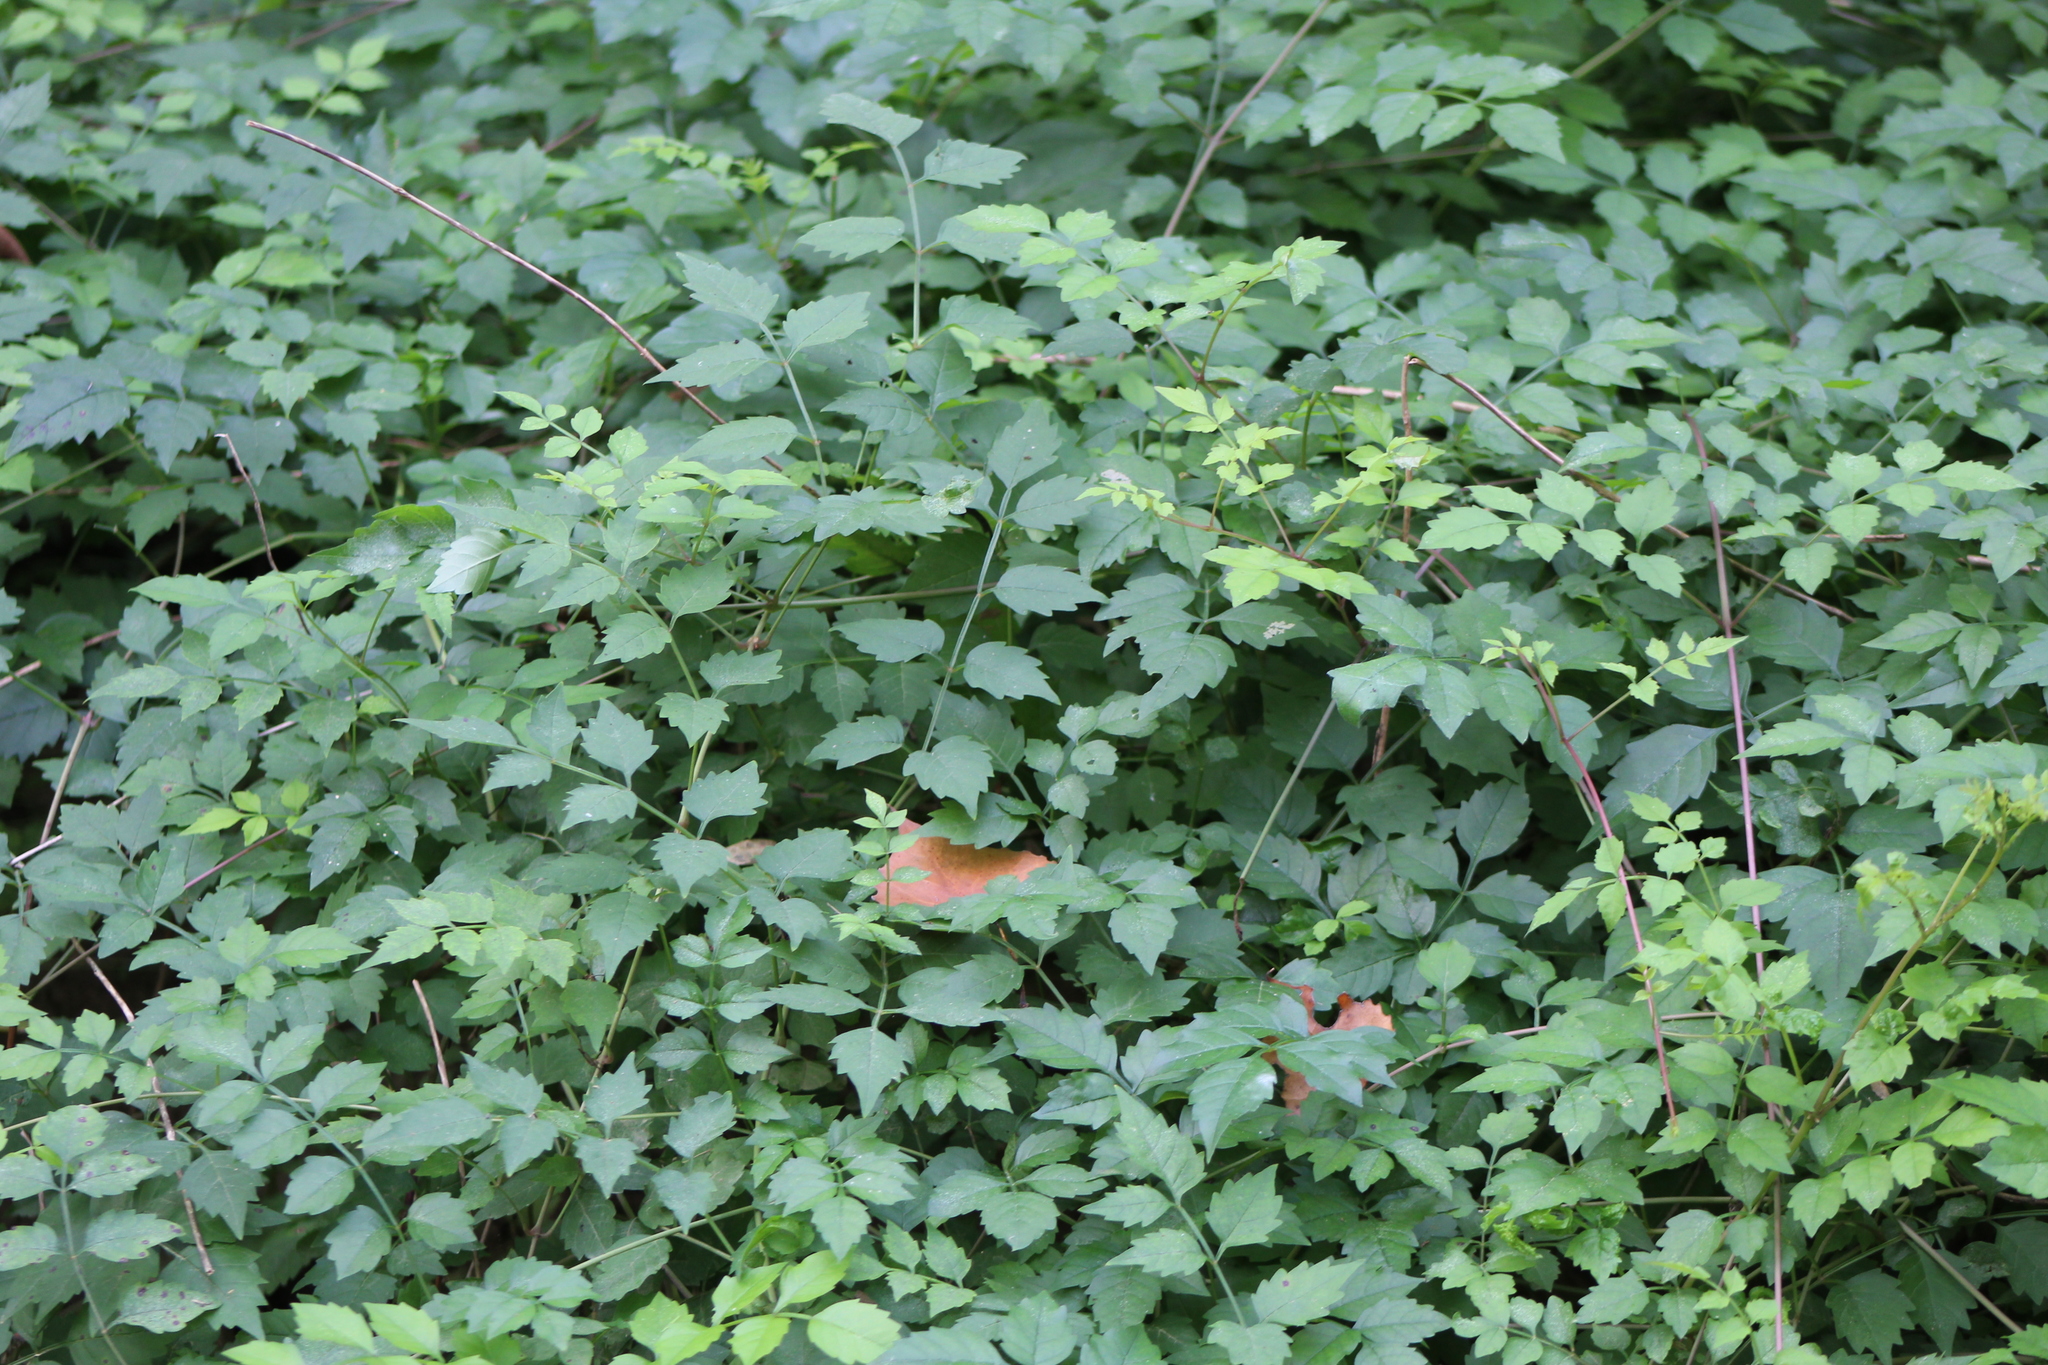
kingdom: Plantae
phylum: Tracheophyta
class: Magnoliopsida
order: Lamiales
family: Bignoniaceae
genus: Campsis
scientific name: Campsis radicans
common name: Trumpet-creeper
